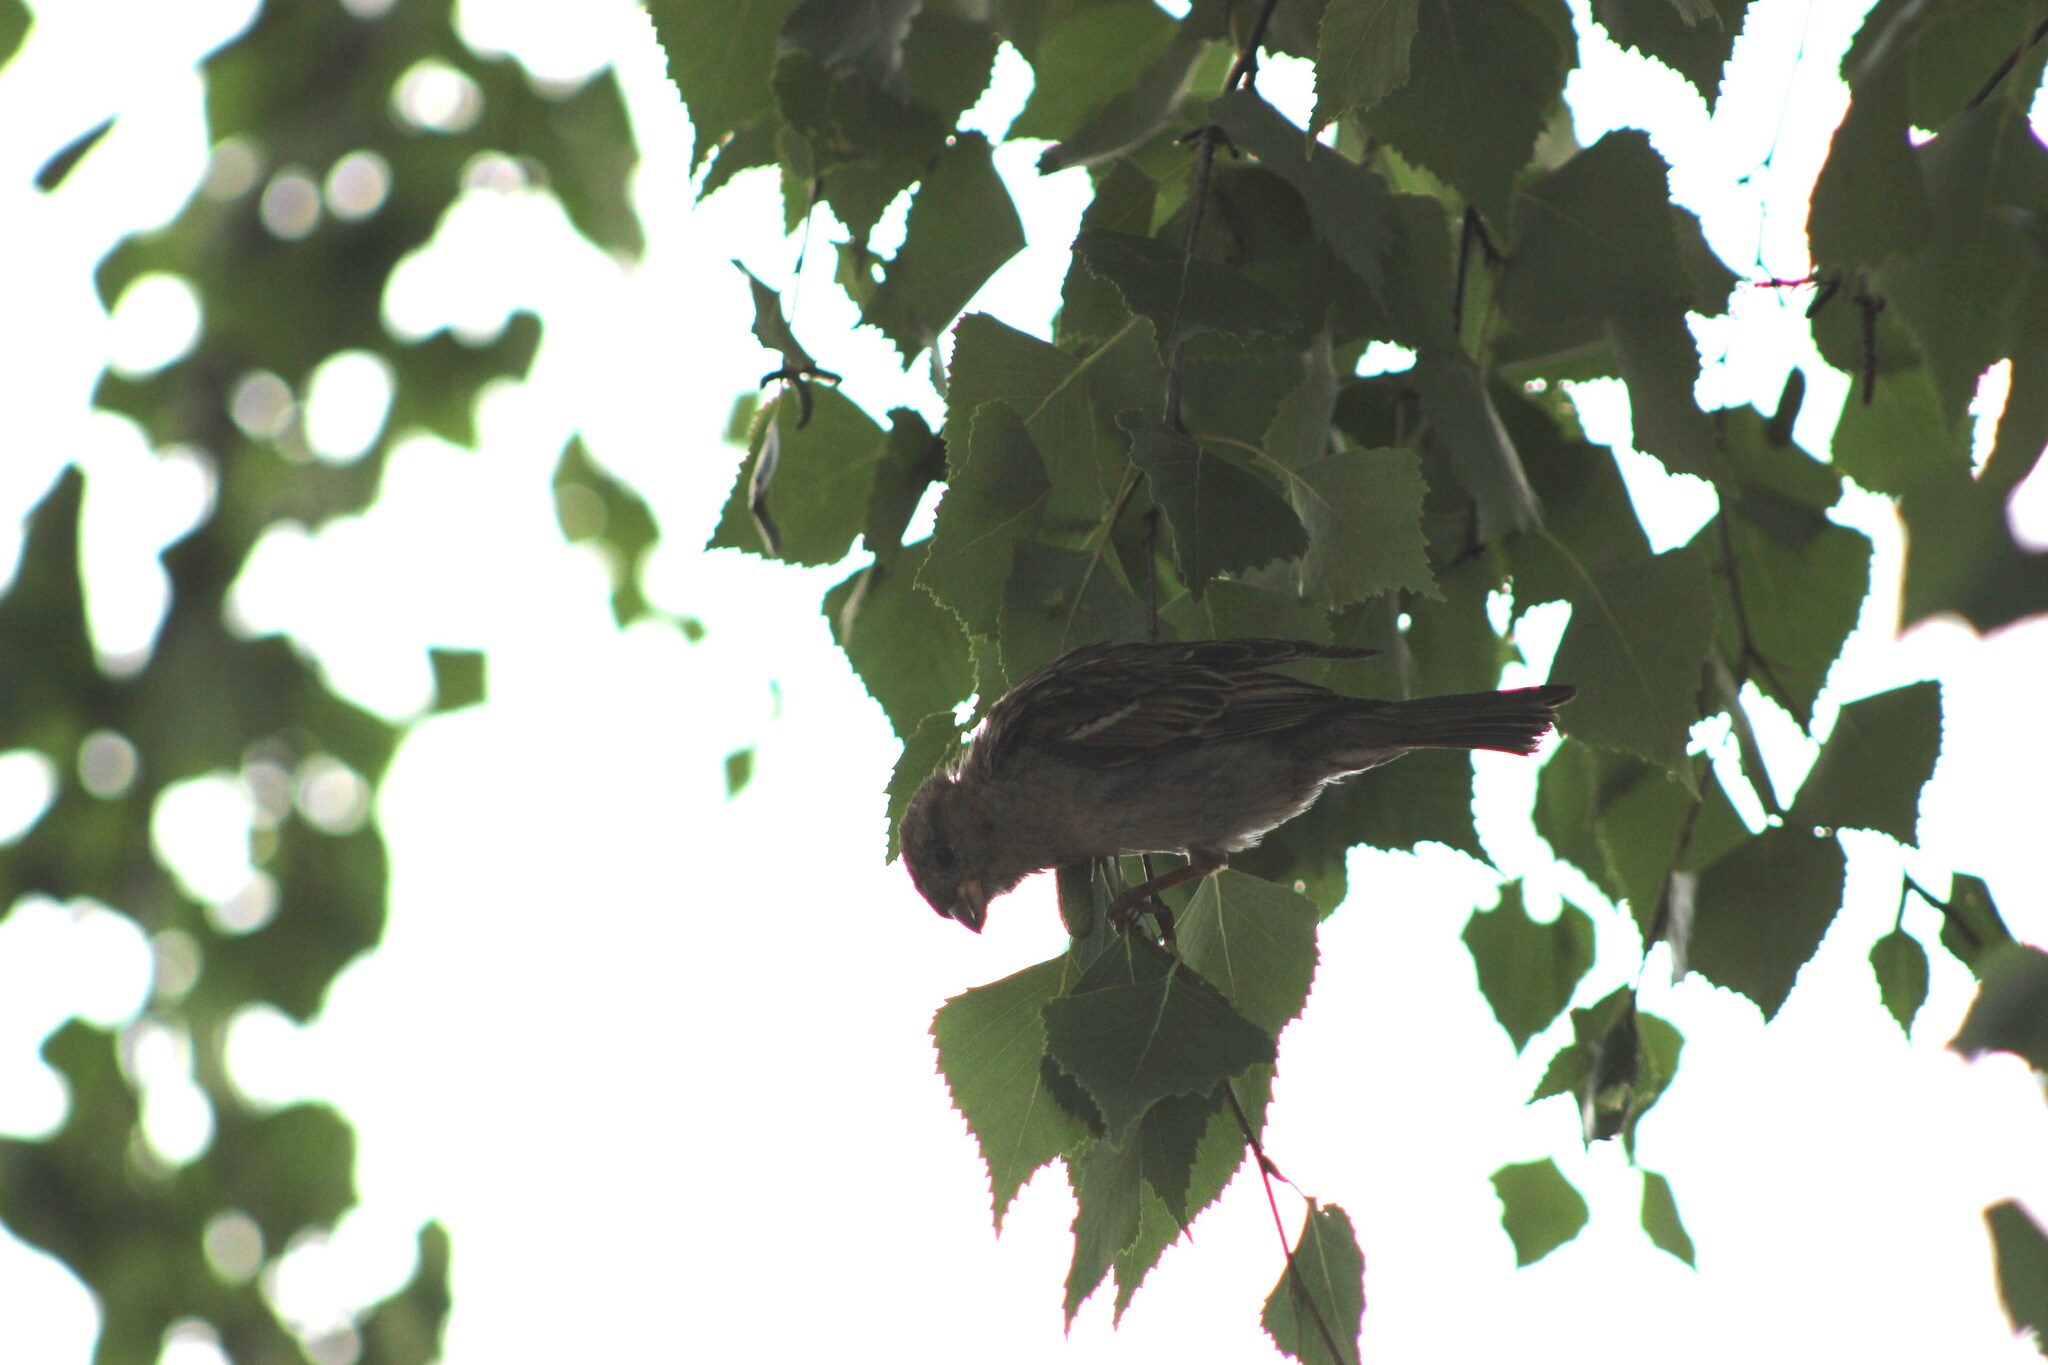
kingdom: Animalia
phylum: Chordata
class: Aves
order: Passeriformes
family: Passeridae
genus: Passer
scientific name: Passer domesticus
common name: House sparrow
